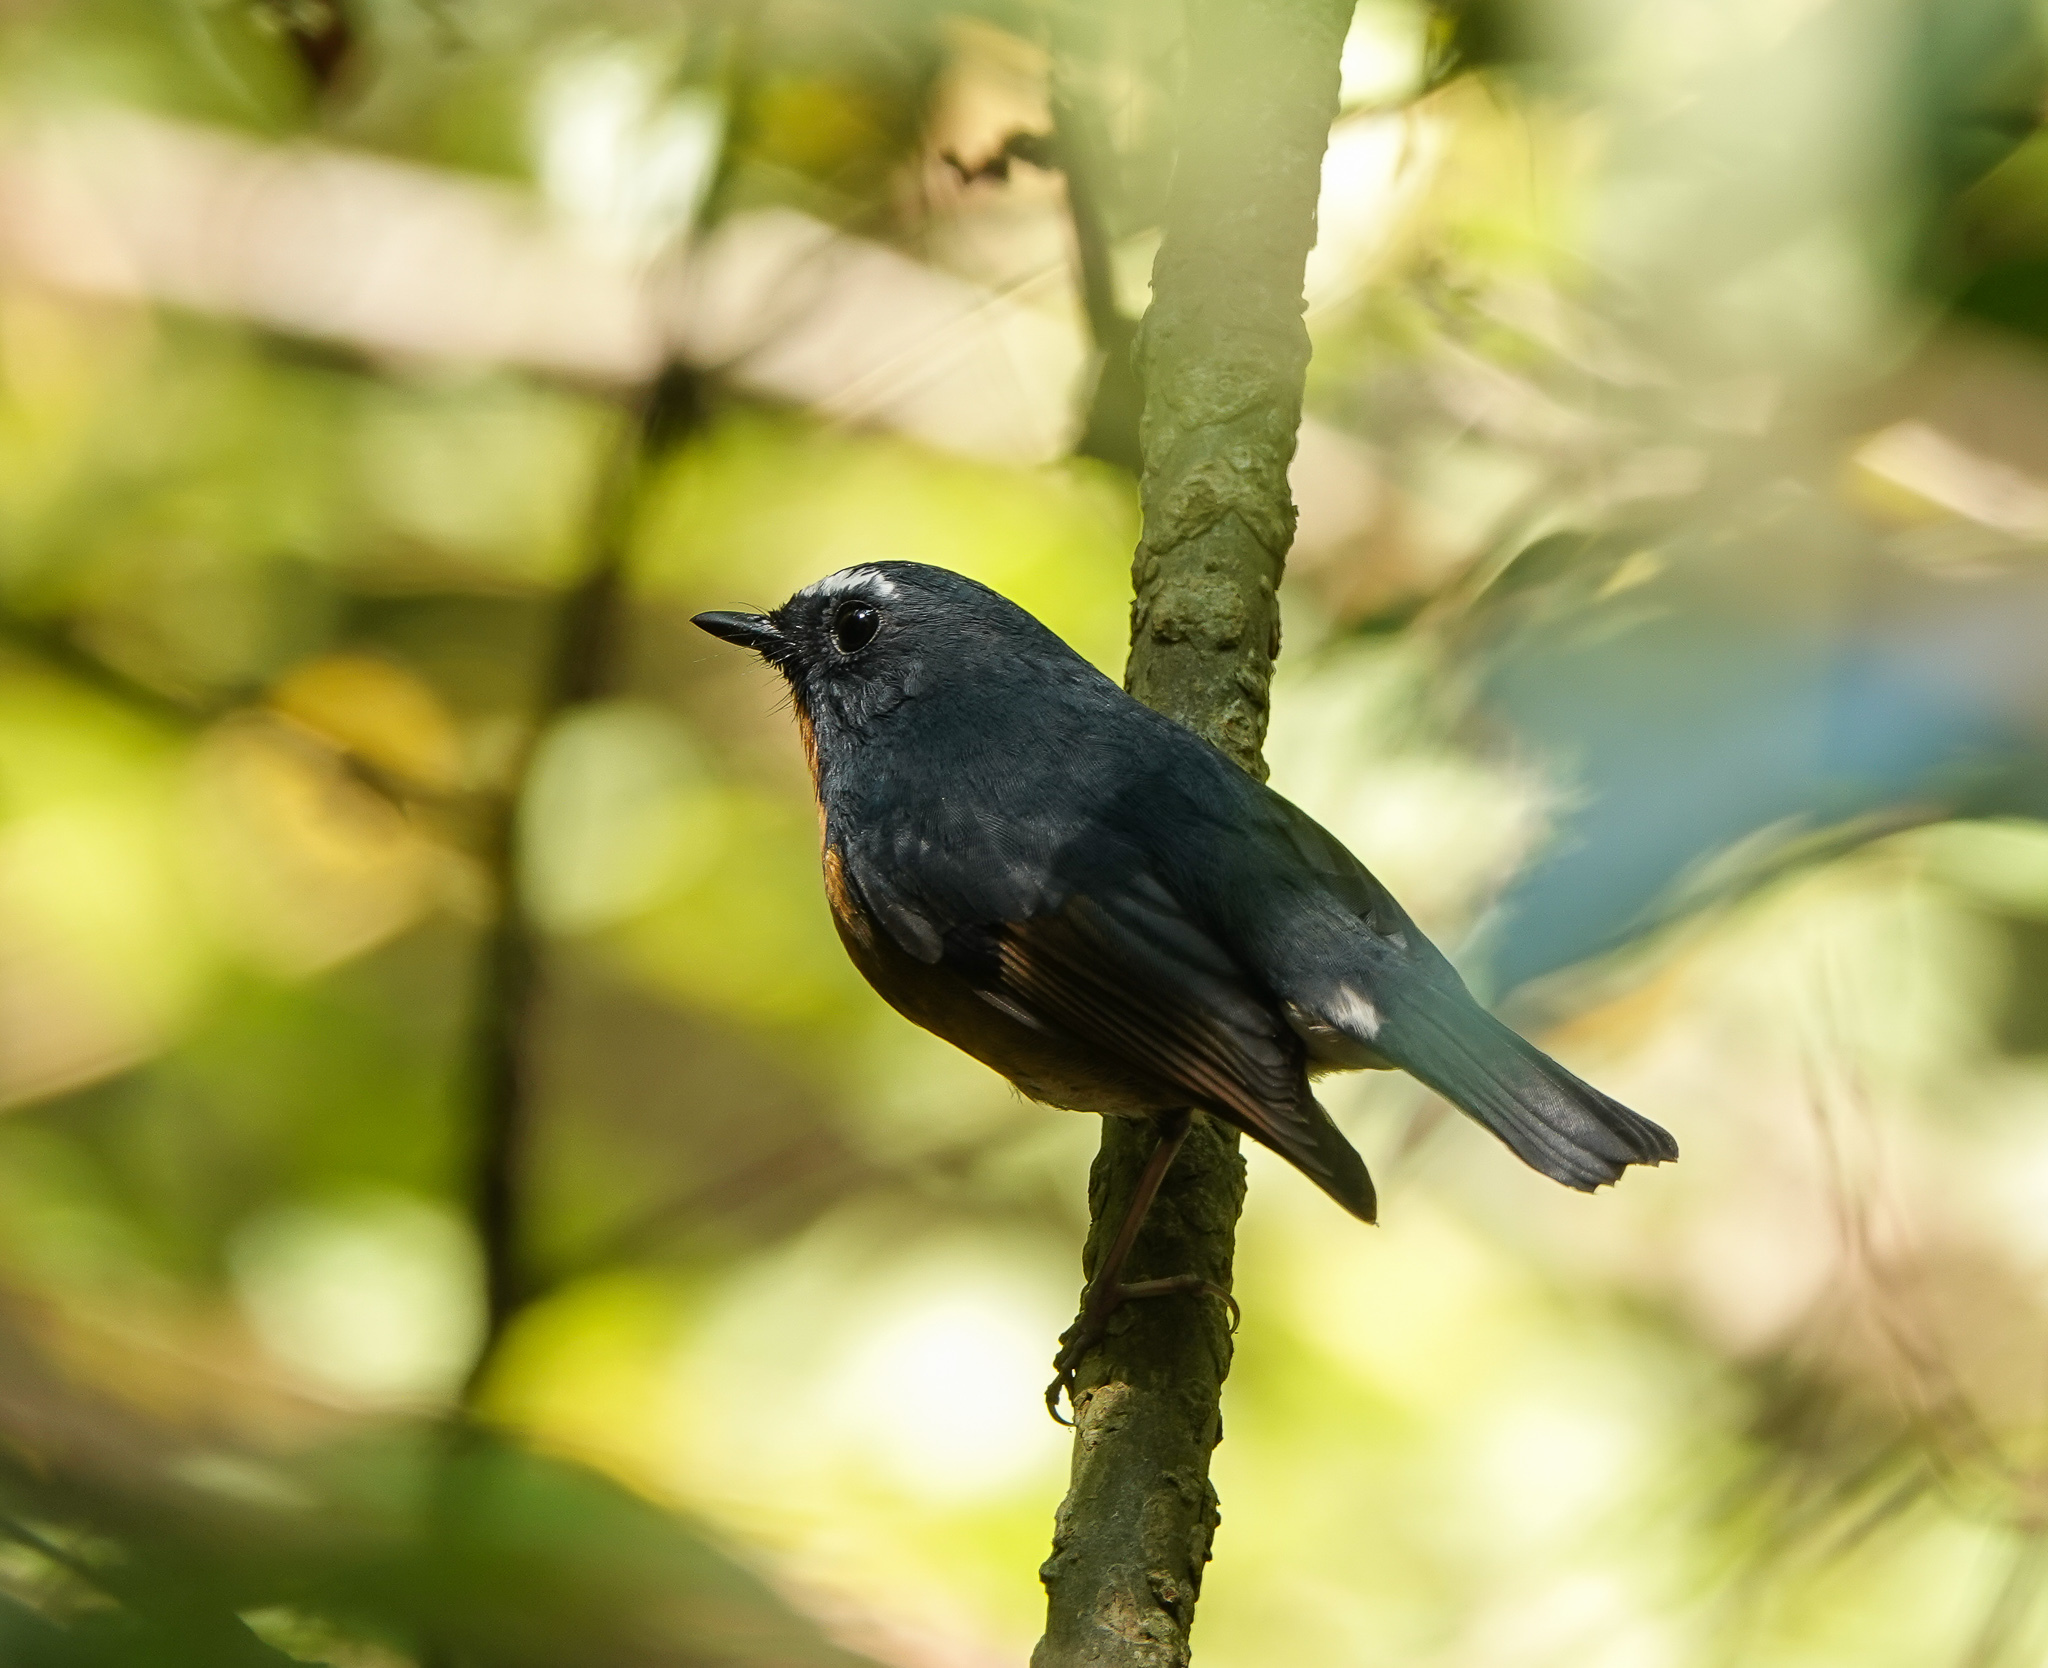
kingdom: Animalia
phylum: Chordata
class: Aves
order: Passeriformes
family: Muscicapidae
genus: Ficedula
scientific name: Ficedula hyperythra
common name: Snowy-browed flycatcher
